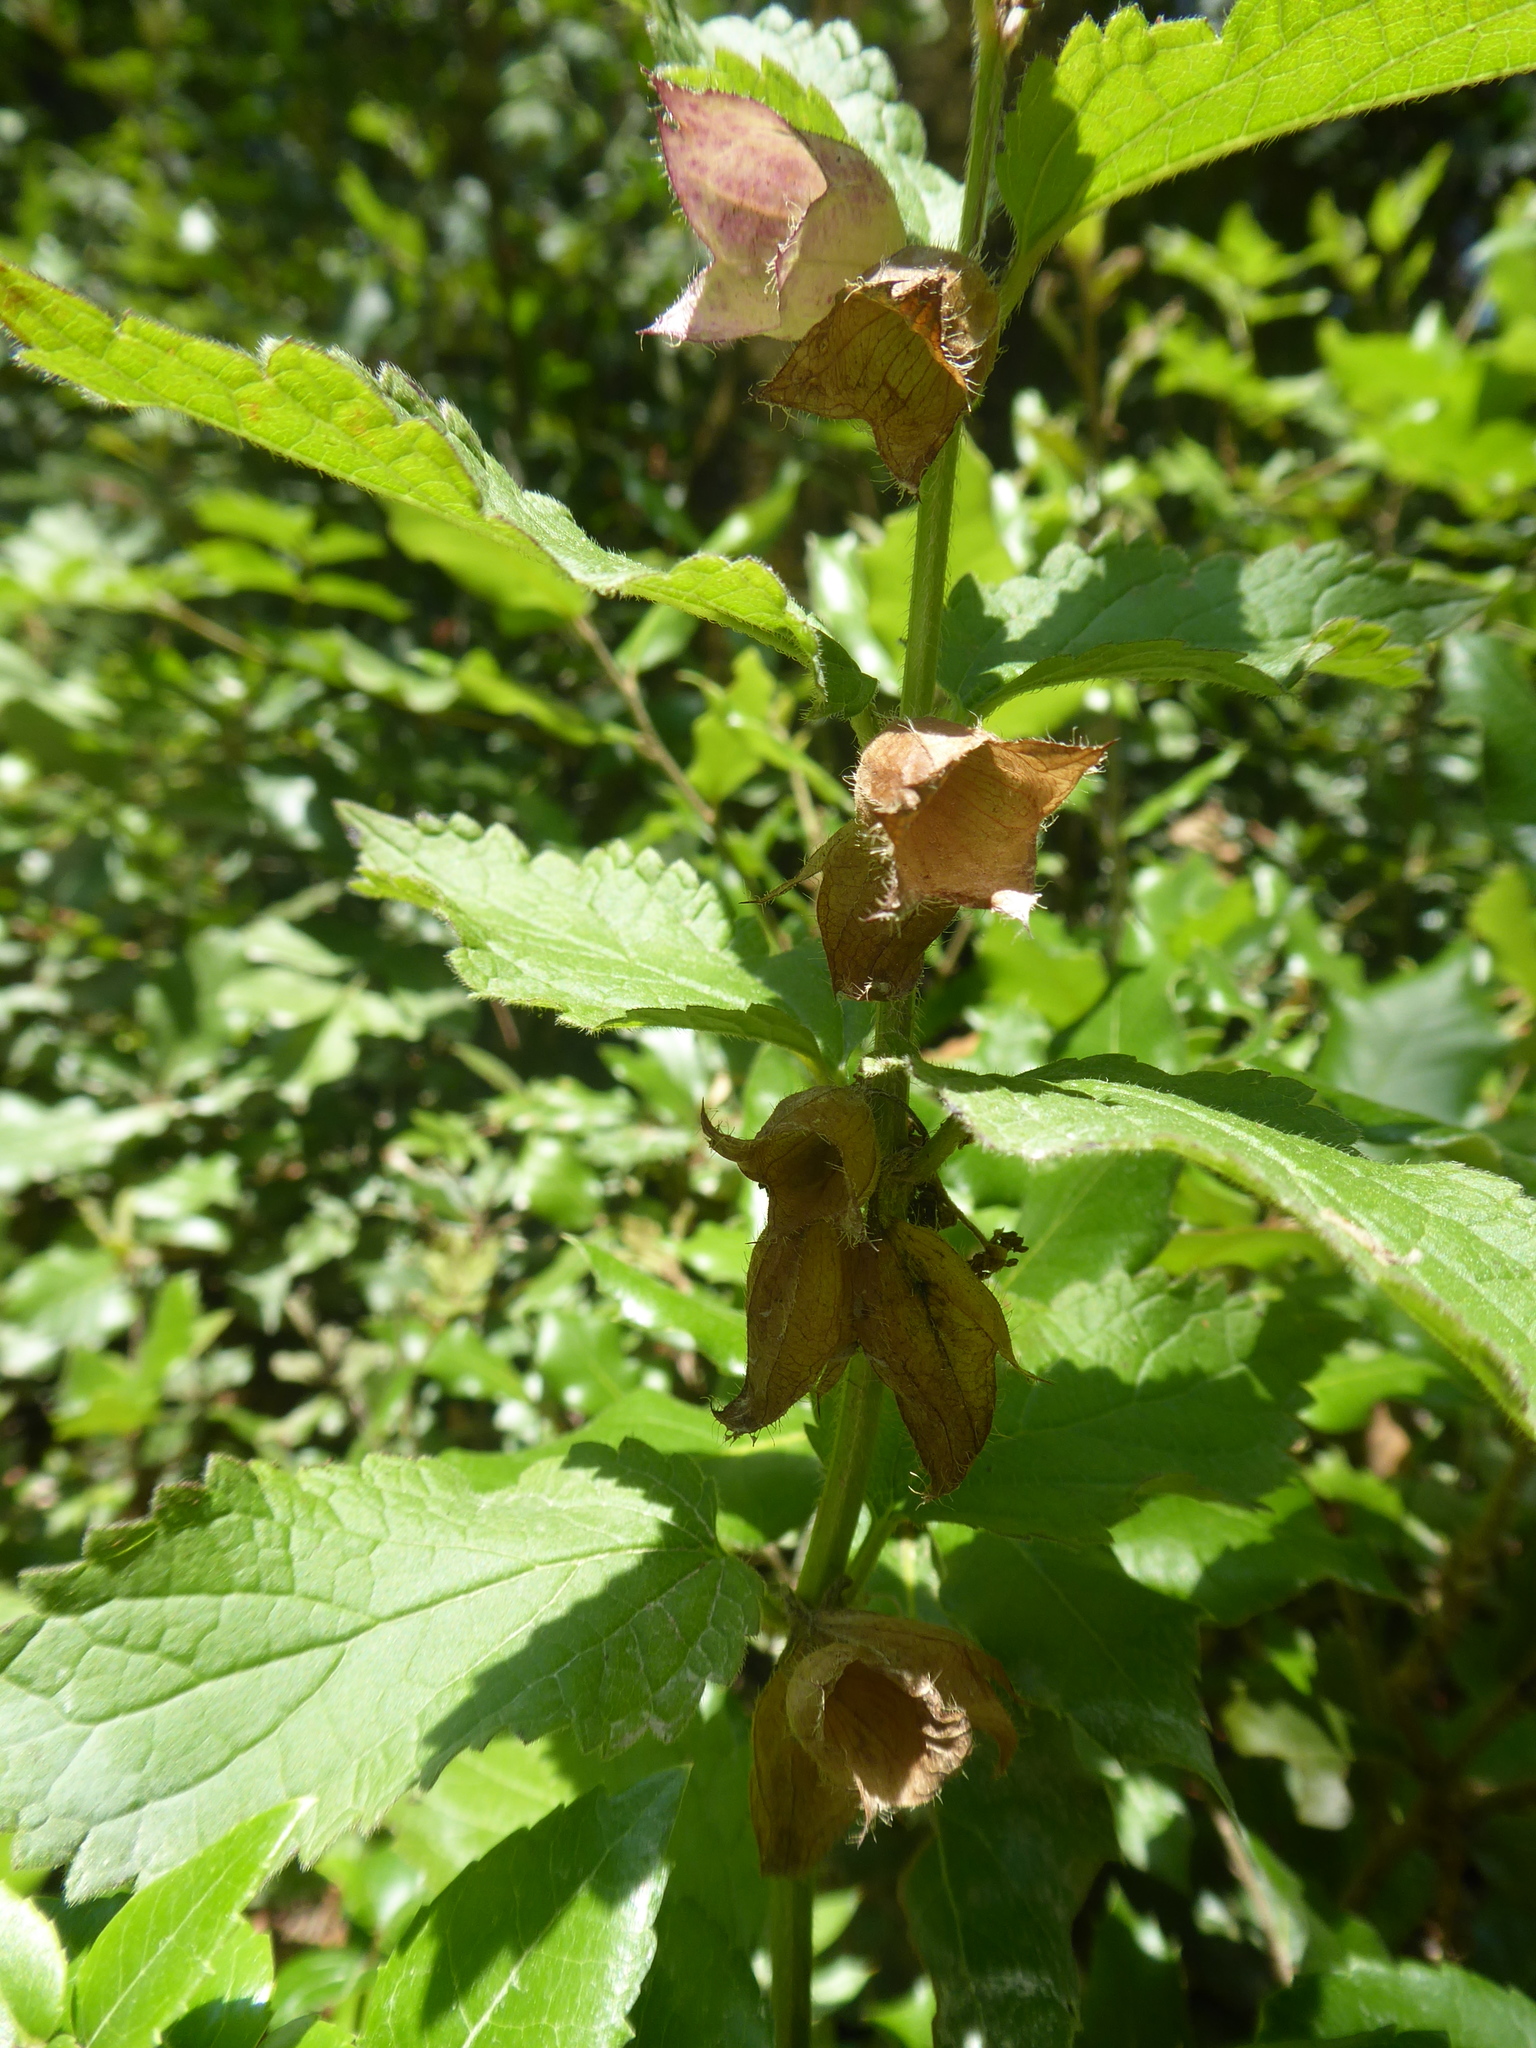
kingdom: Plantae
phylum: Tracheophyta
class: Magnoliopsida
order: Lamiales
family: Lamiaceae
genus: Melittis
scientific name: Melittis melissophyllum
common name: Bastard balm
